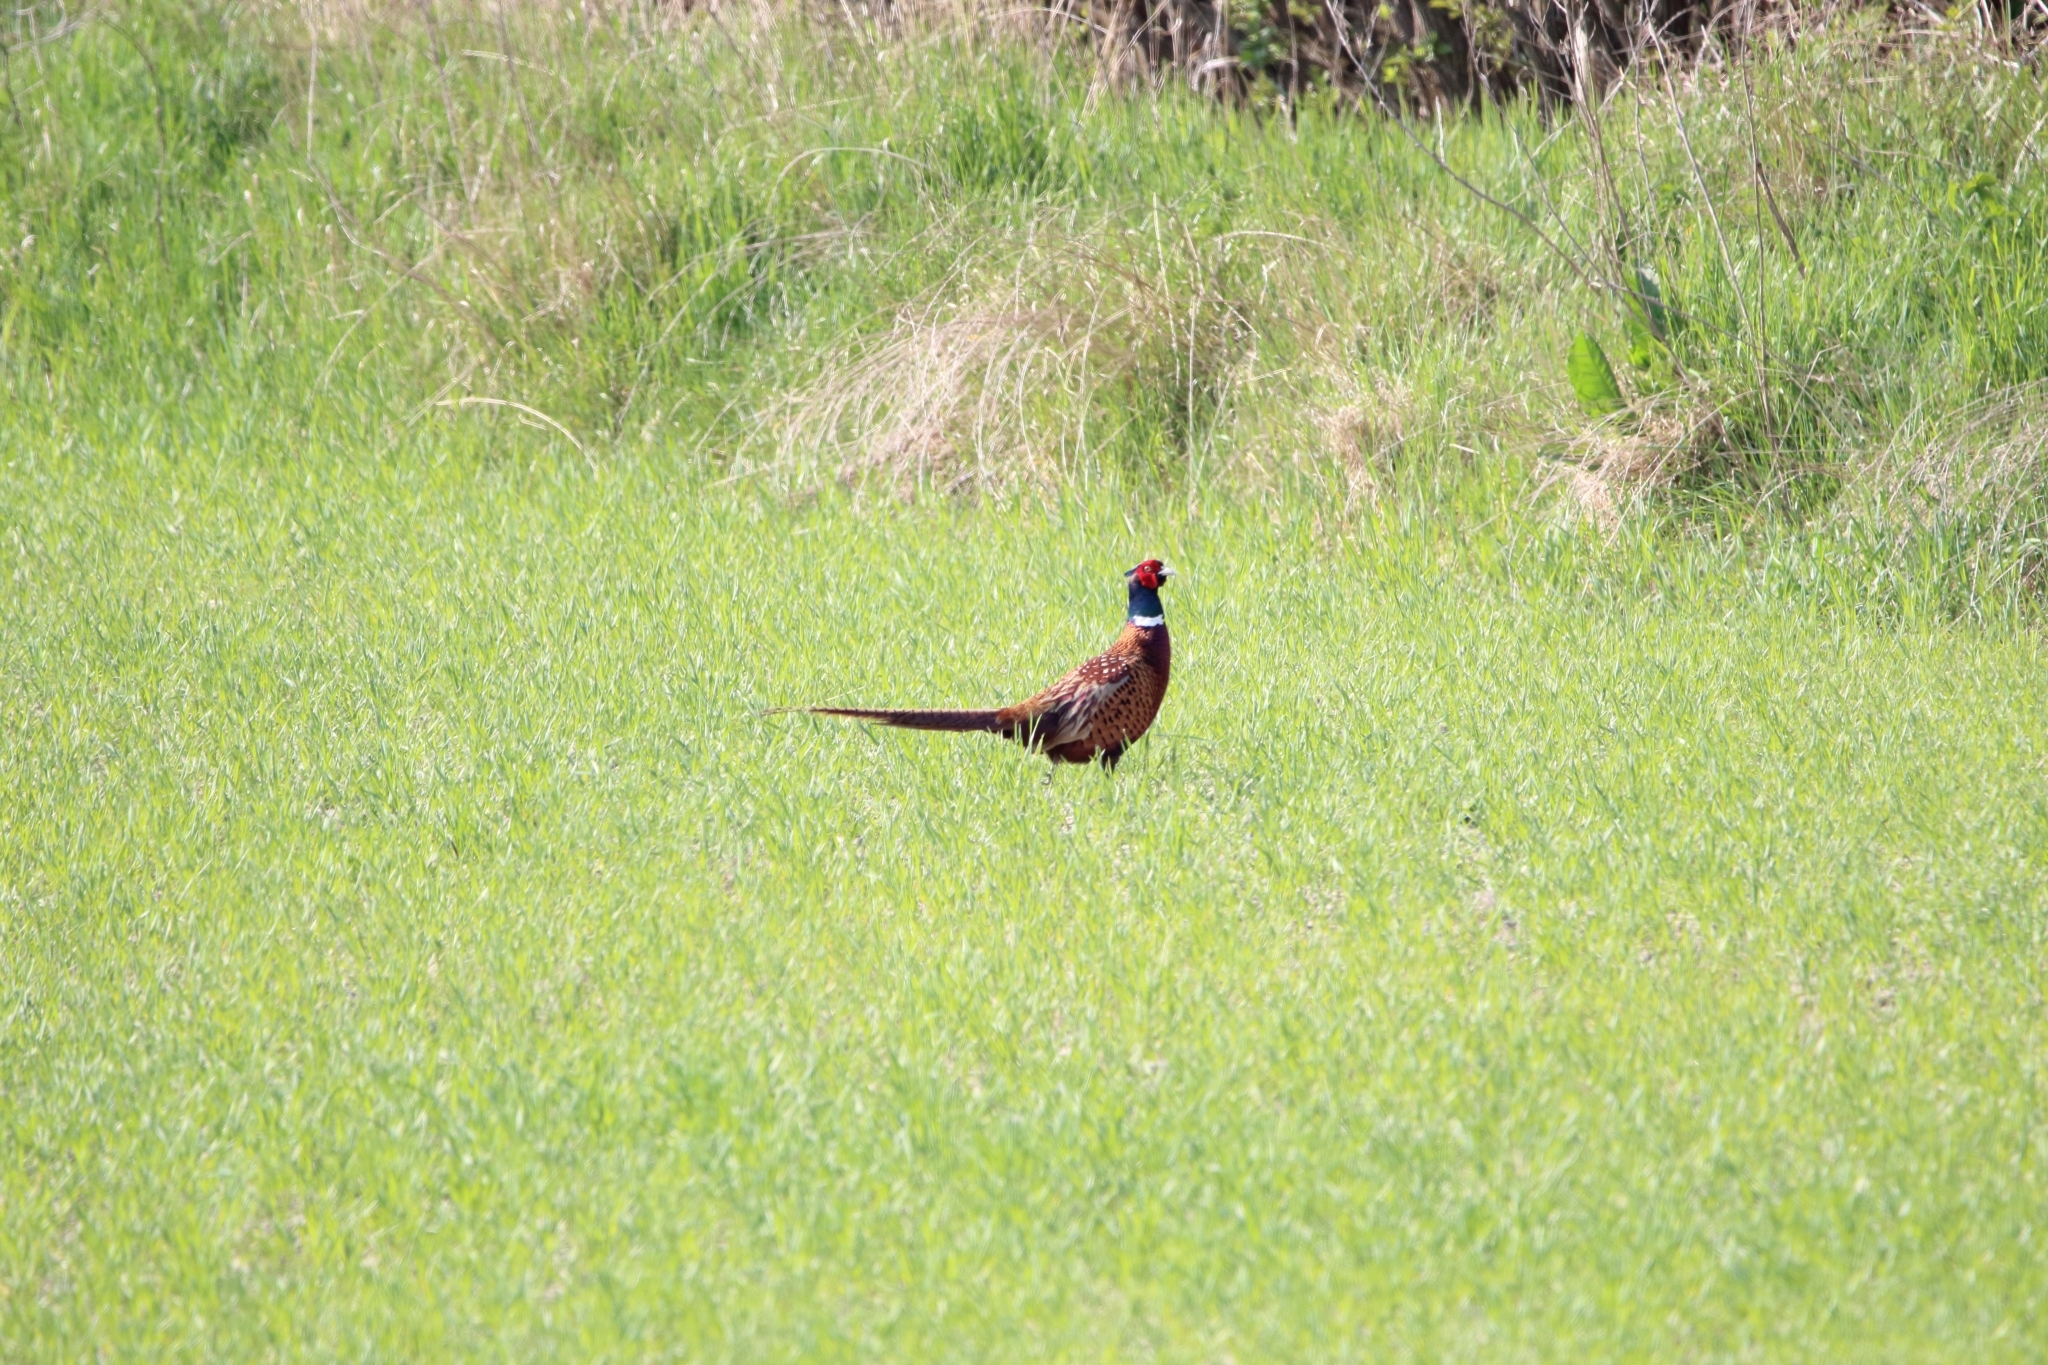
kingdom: Animalia
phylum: Chordata
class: Aves
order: Galliformes
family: Phasianidae
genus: Phasianus
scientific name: Phasianus colchicus
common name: Common pheasant
